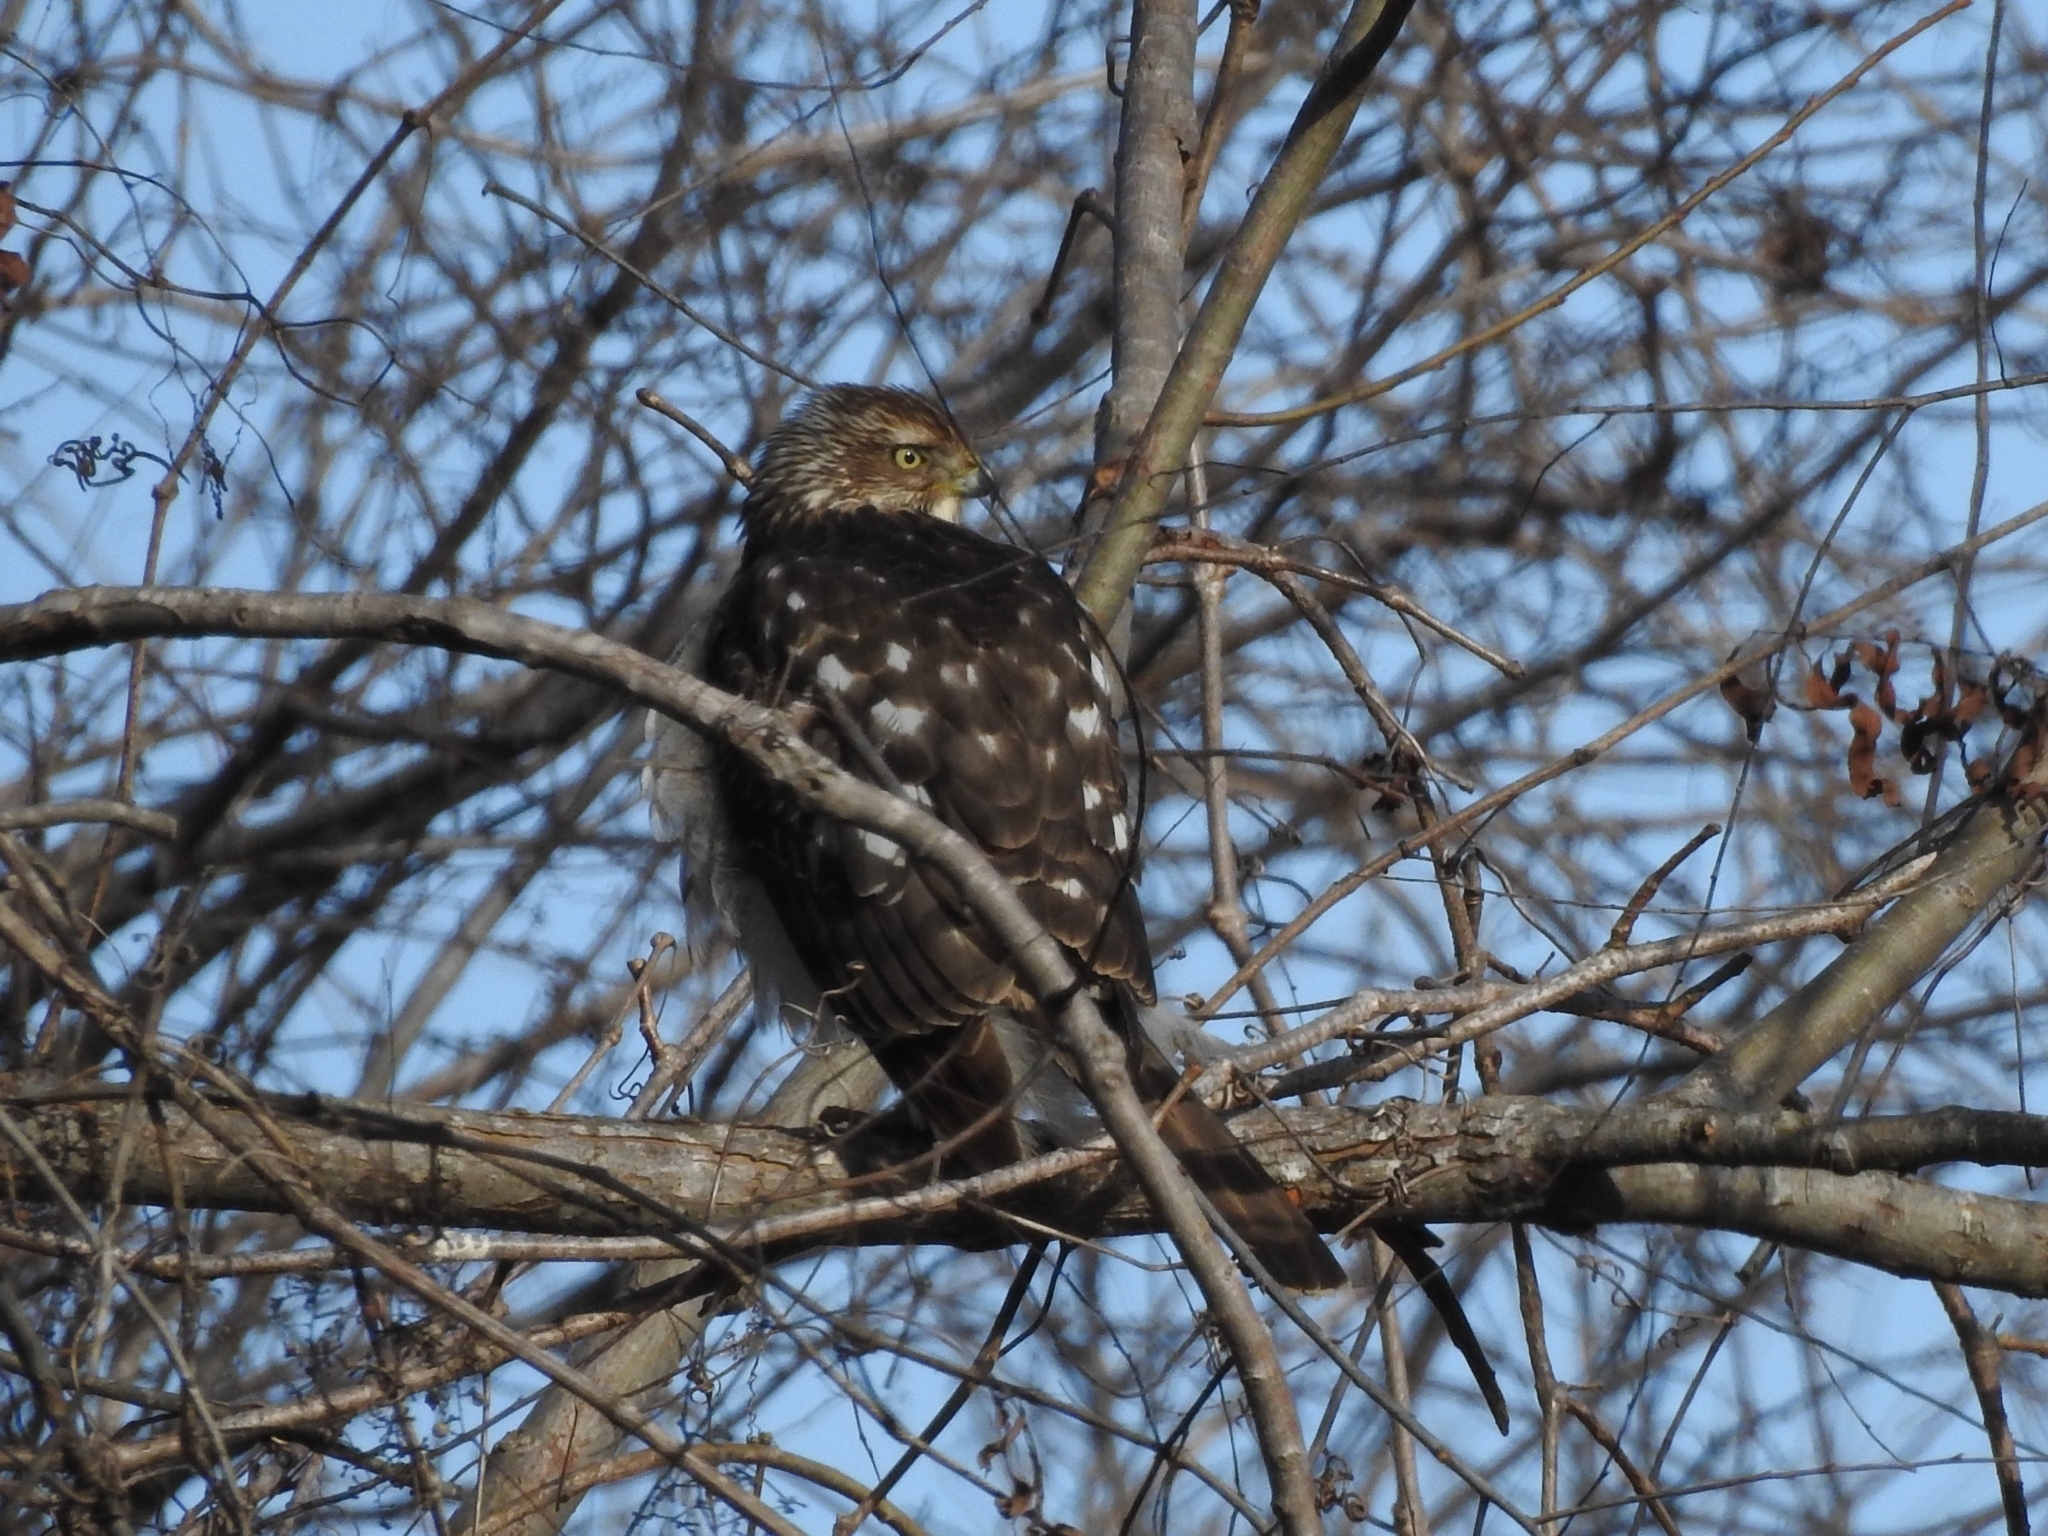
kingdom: Animalia
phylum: Chordata
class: Aves
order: Accipitriformes
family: Accipitridae
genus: Accipiter
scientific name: Accipiter cooperii
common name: Cooper's hawk
